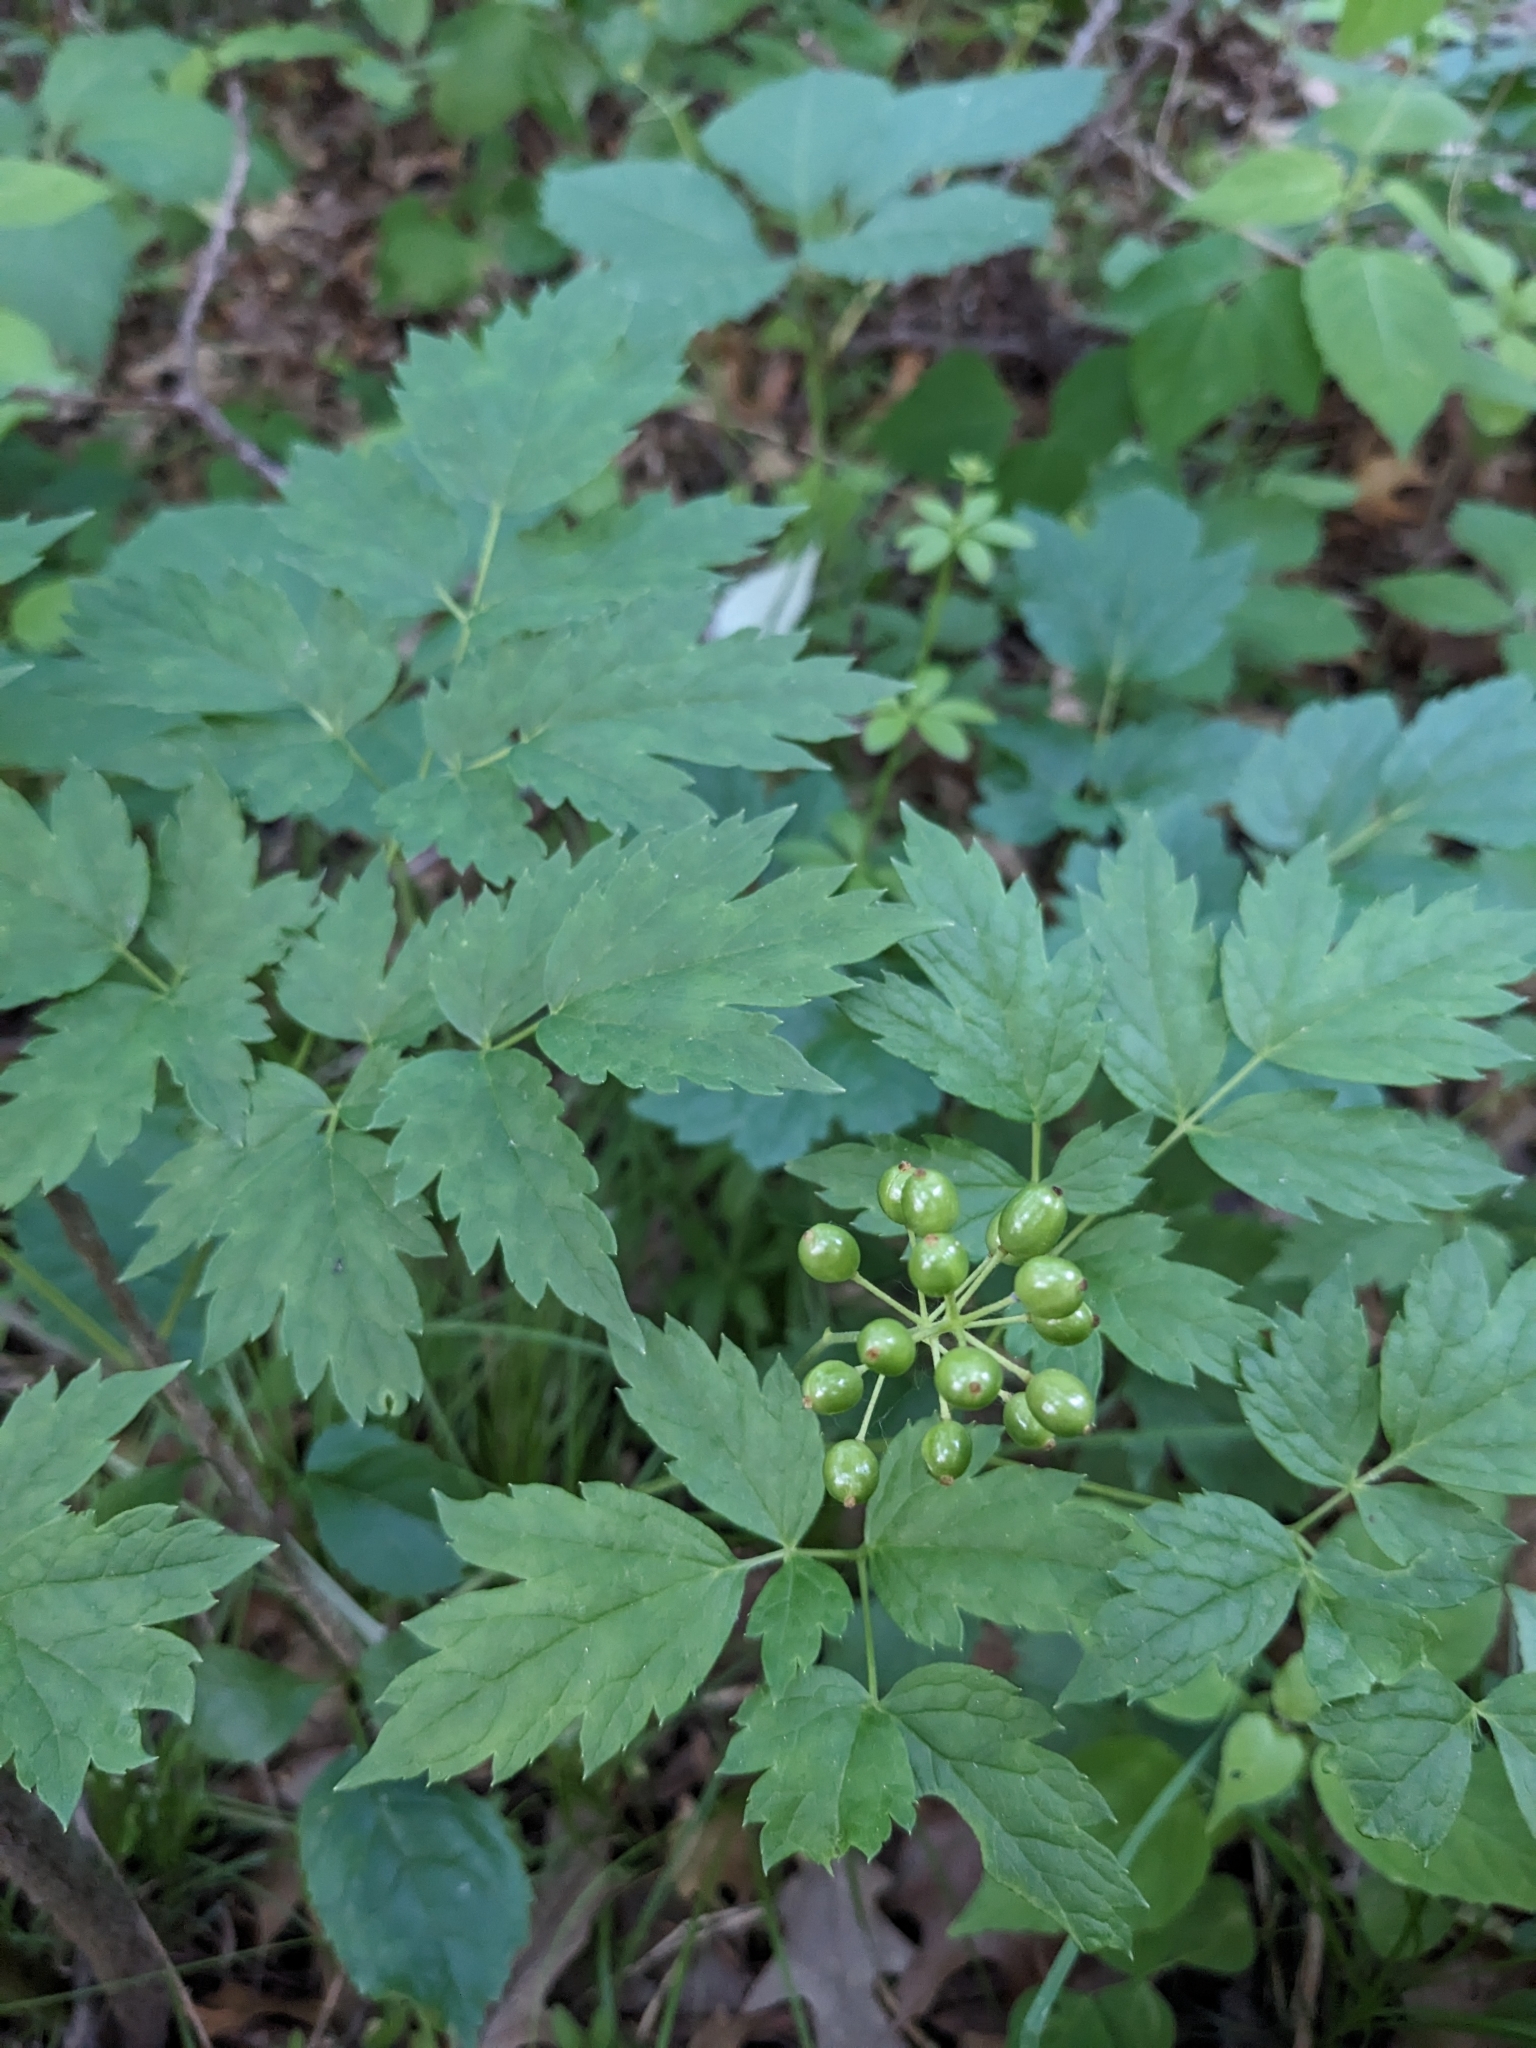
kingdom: Plantae
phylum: Tracheophyta
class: Magnoliopsida
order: Ranunculales
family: Ranunculaceae
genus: Actaea
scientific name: Actaea rubra
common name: Red baneberry
